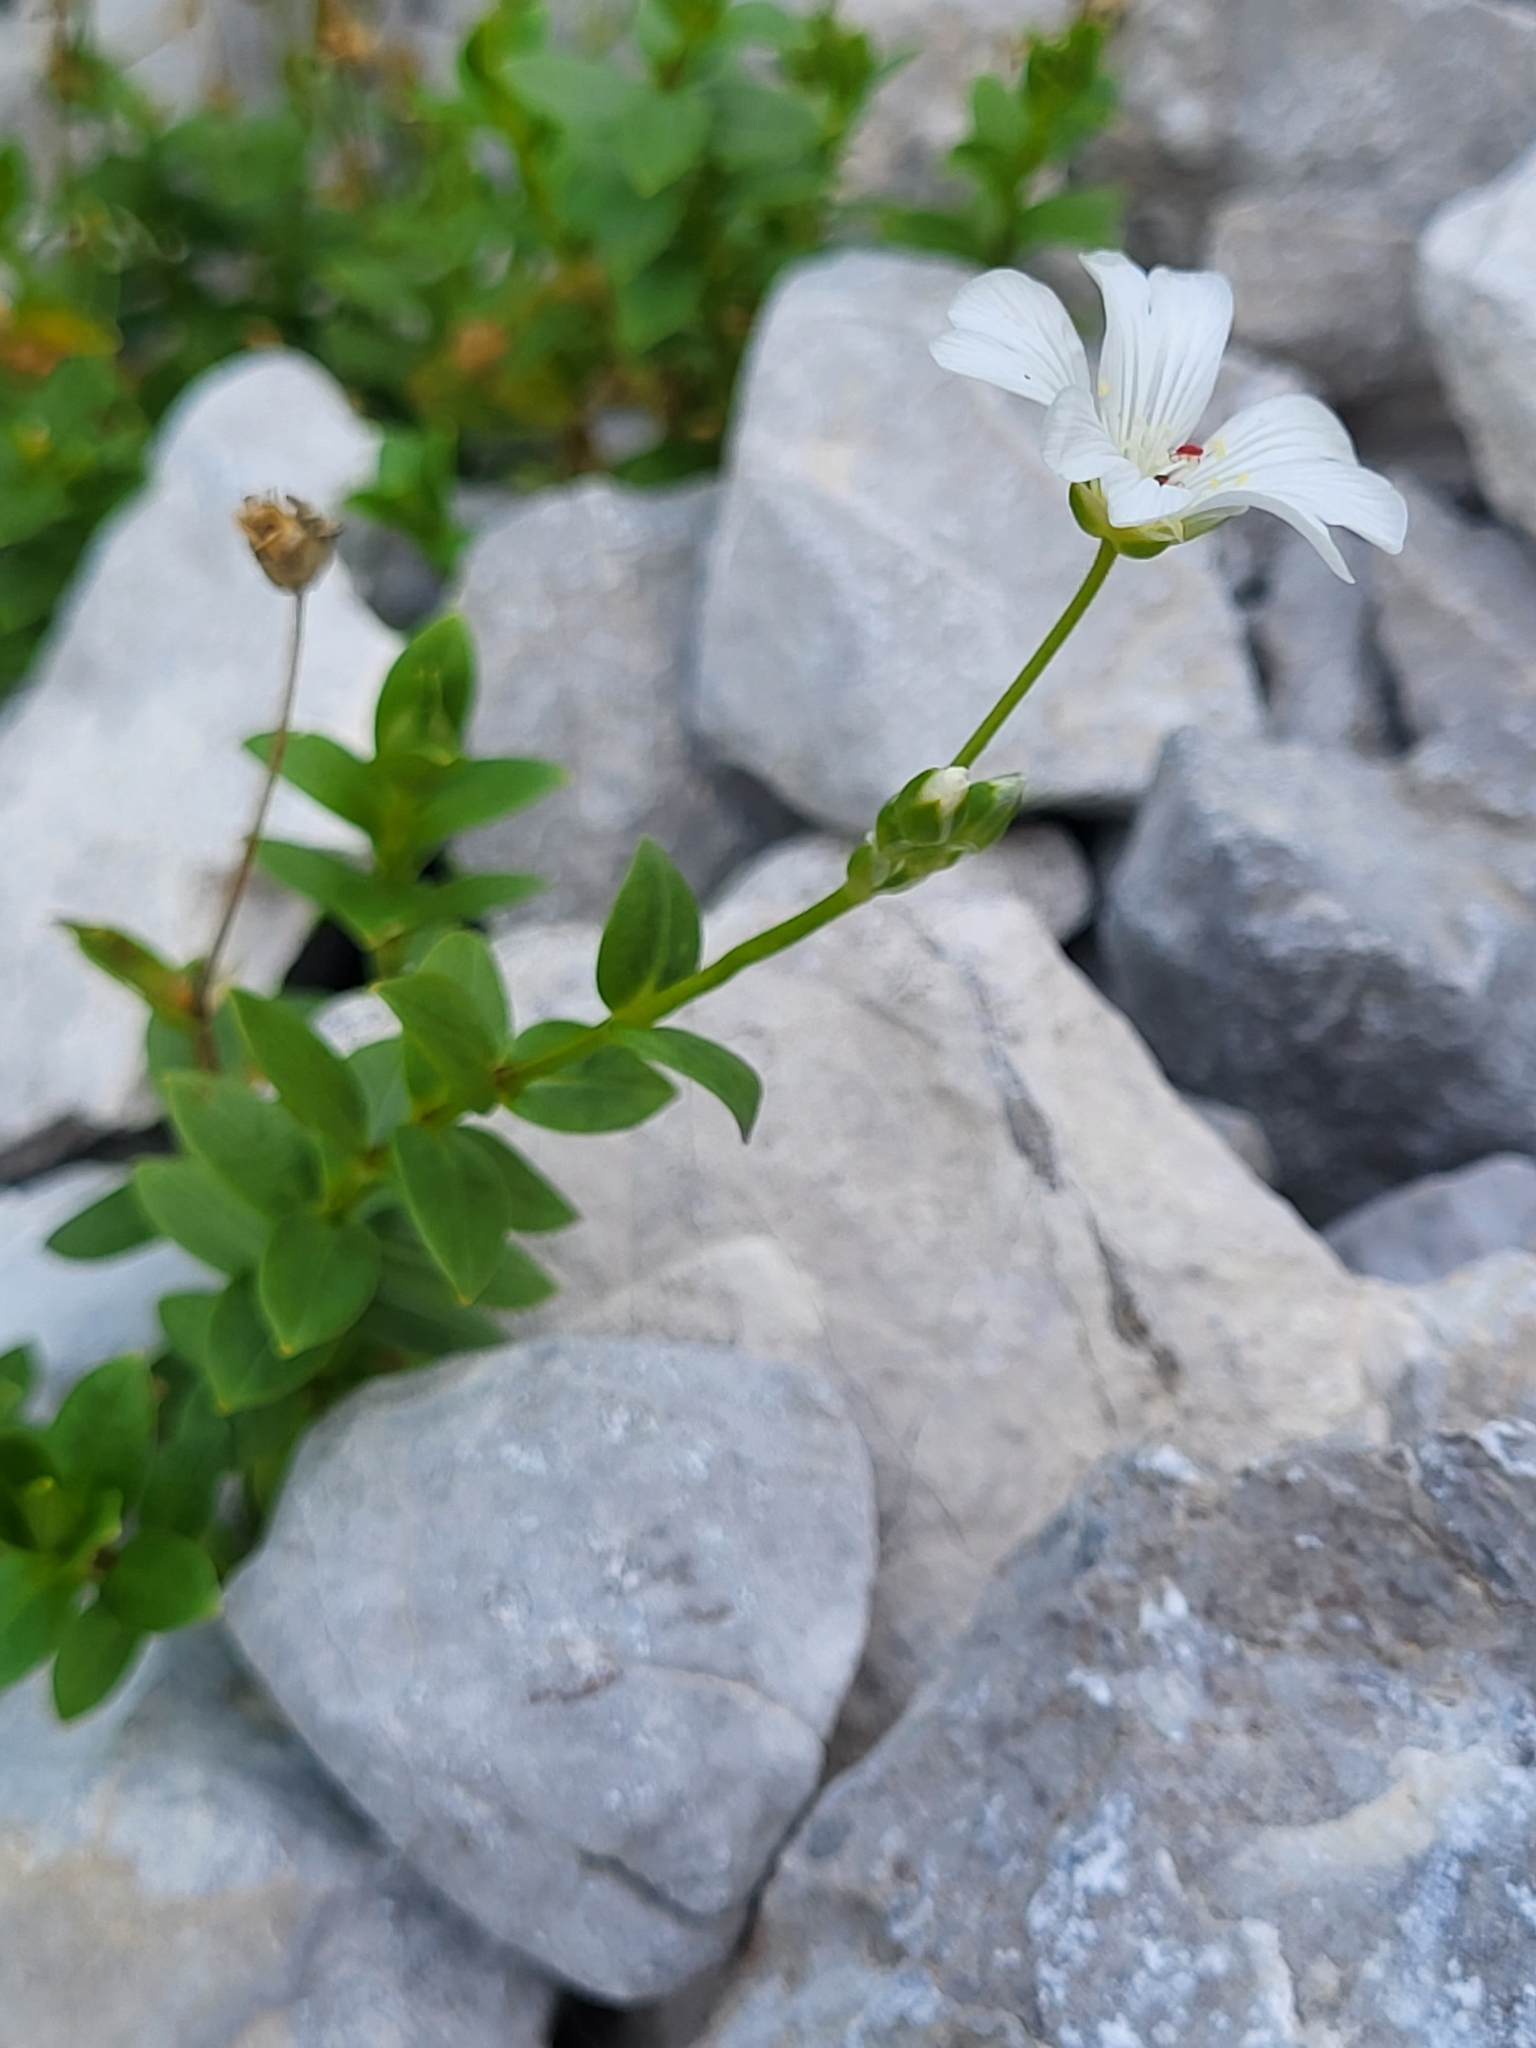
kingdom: Plantae
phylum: Tracheophyta
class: Magnoliopsida
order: Caryophyllales
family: Caryophyllaceae
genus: Cerastium
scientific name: Cerastium carinthiacum
